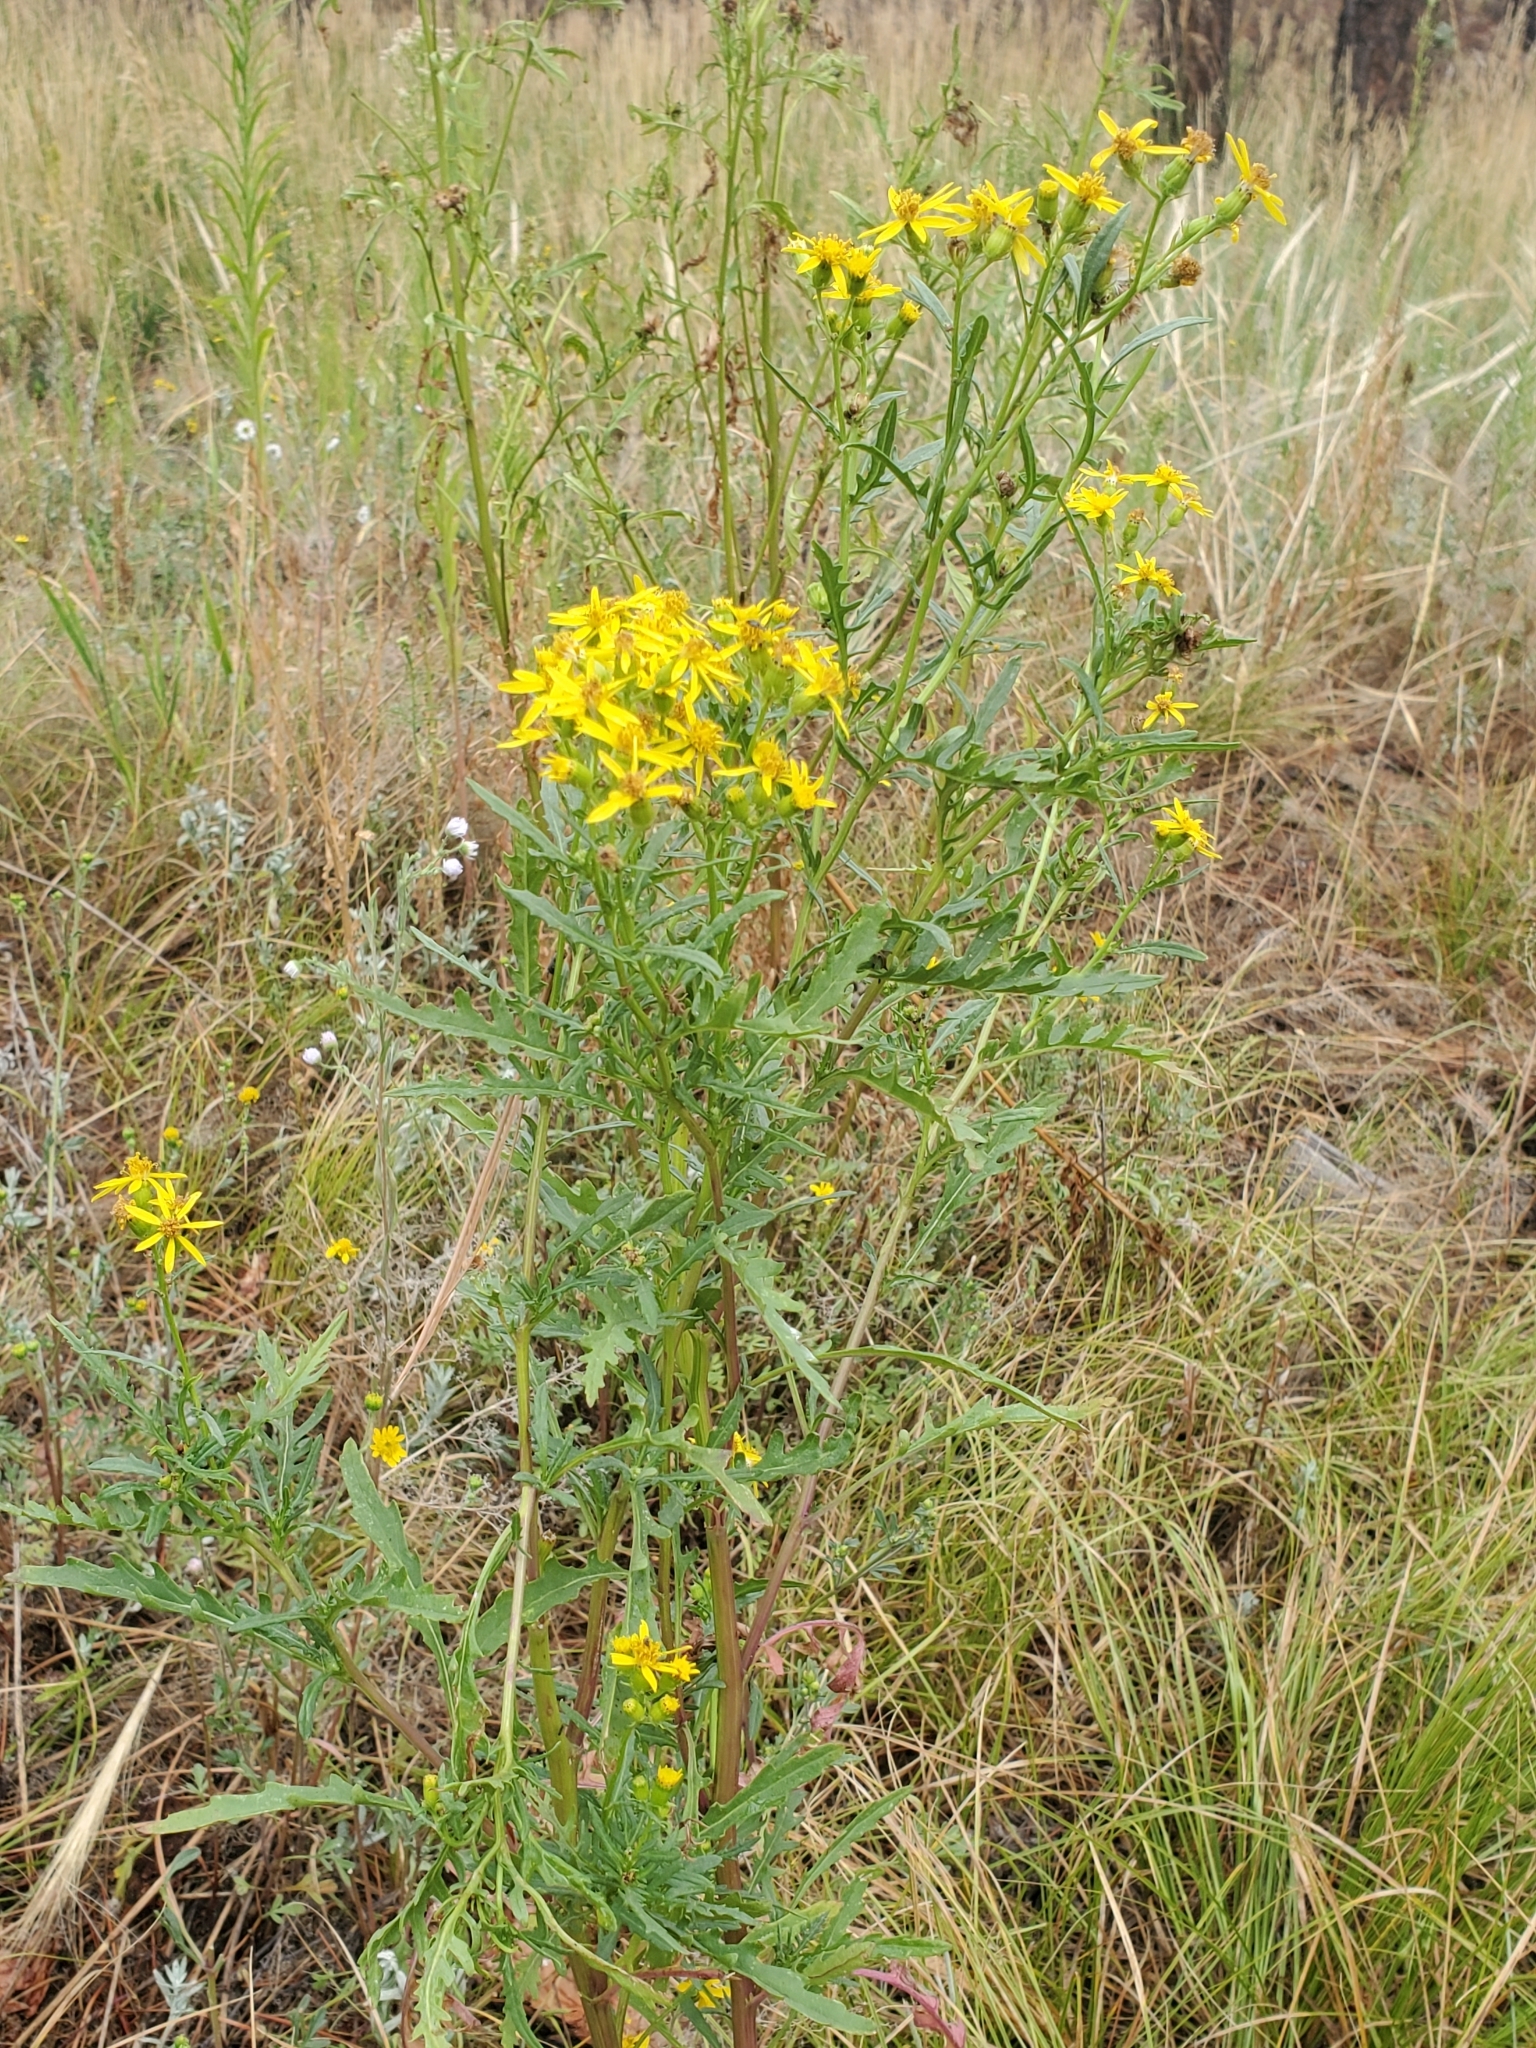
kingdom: Plantae
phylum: Tracheophyta
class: Magnoliopsida
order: Asterales
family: Asteraceae
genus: Senecio
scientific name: Senecio eremophilus
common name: Desert ragwort
